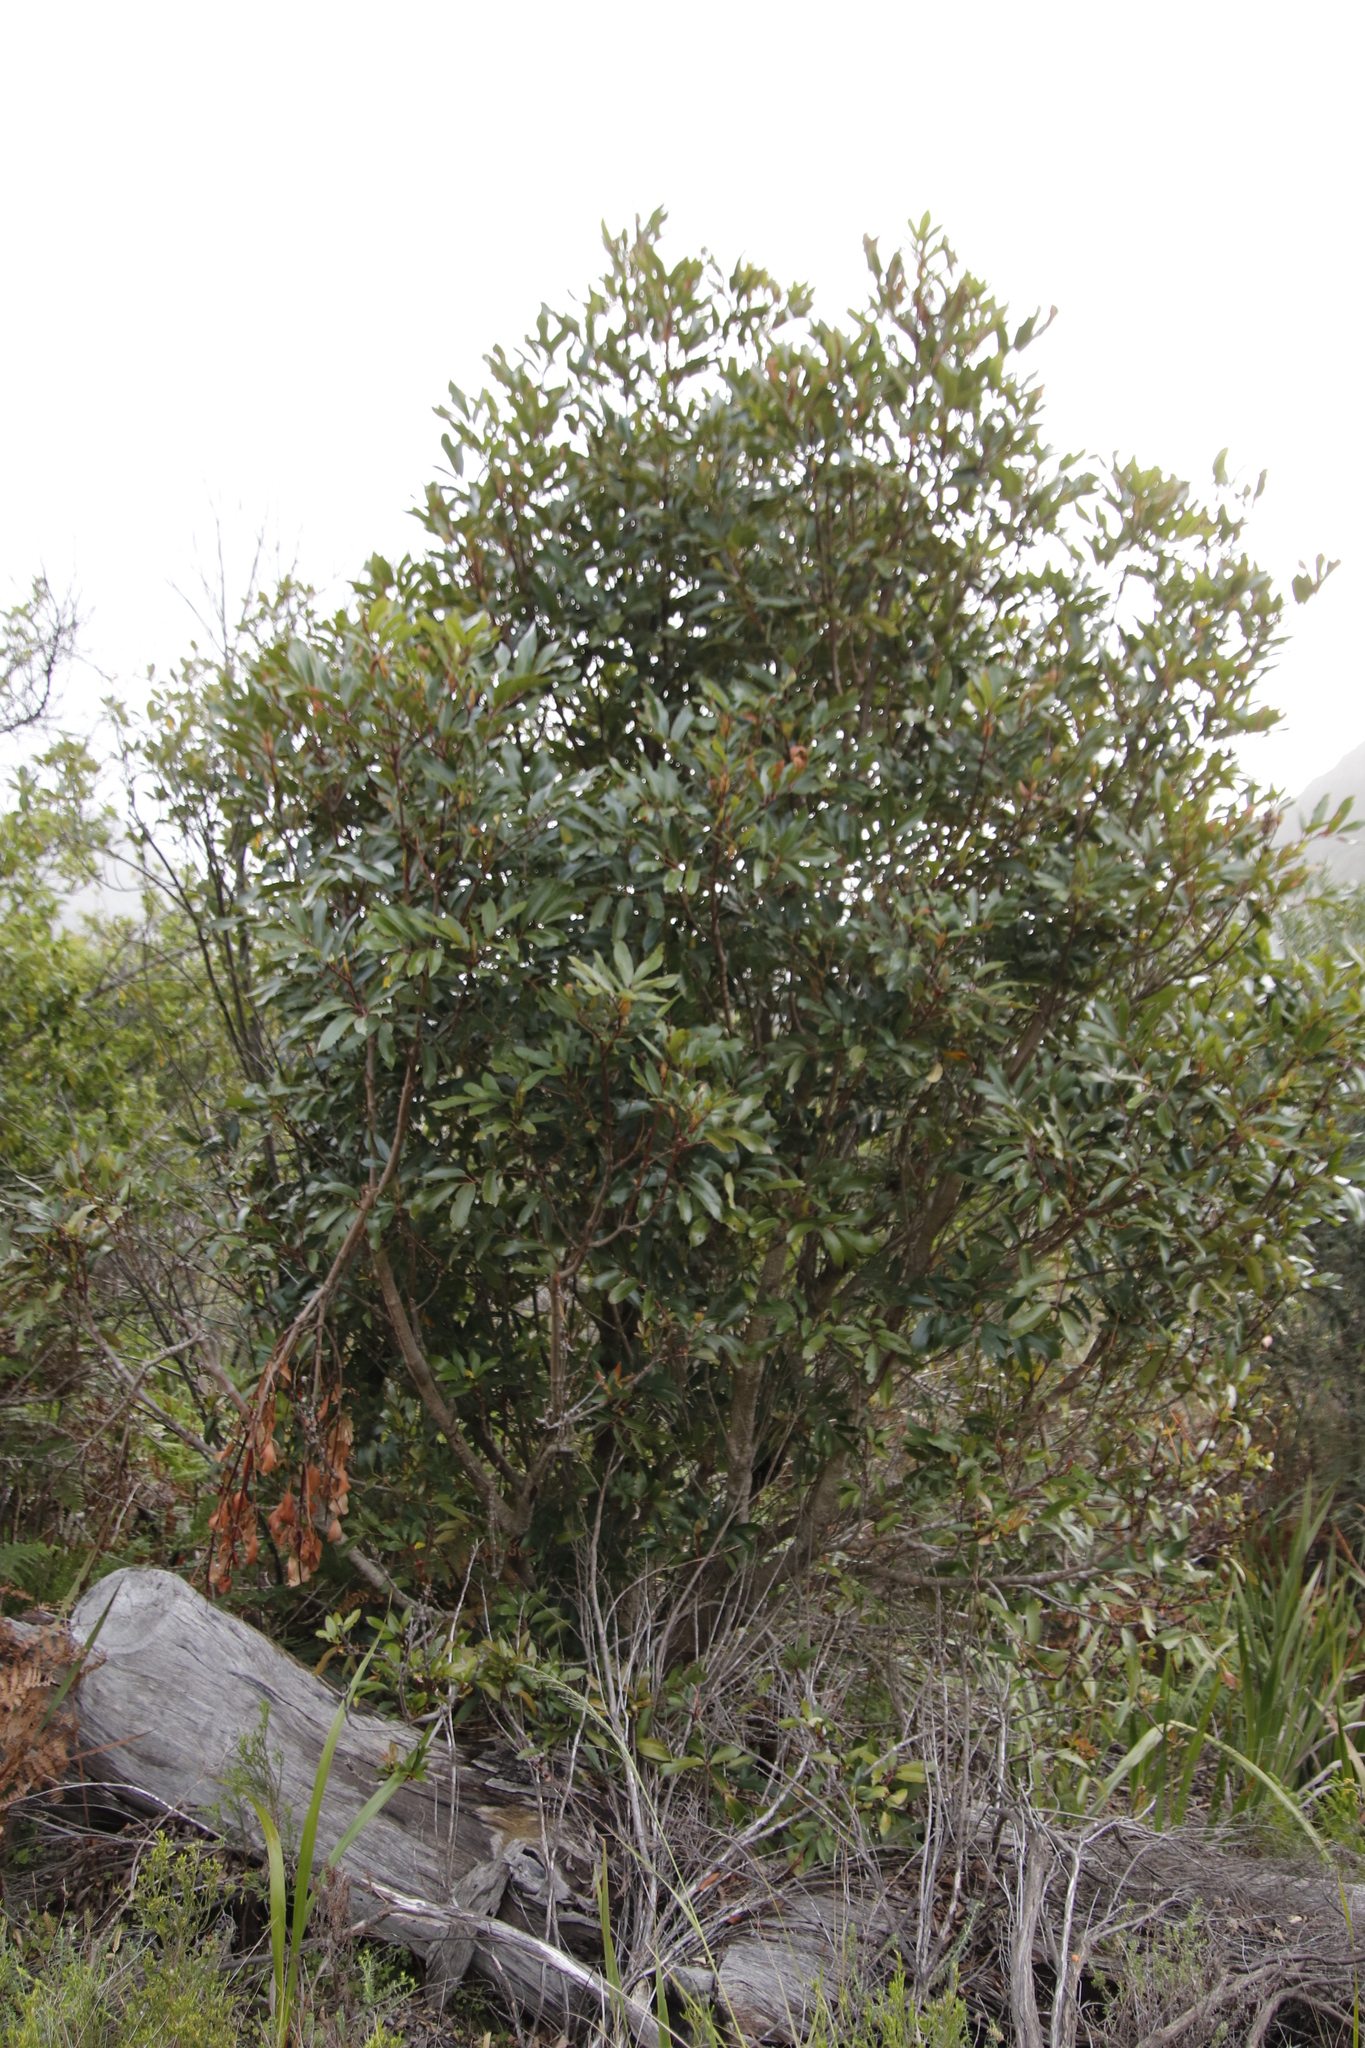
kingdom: Plantae
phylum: Tracheophyta
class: Magnoliopsida
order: Oxalidales
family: Cunoniaceae
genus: Cunonia
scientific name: Cunonia capensis
